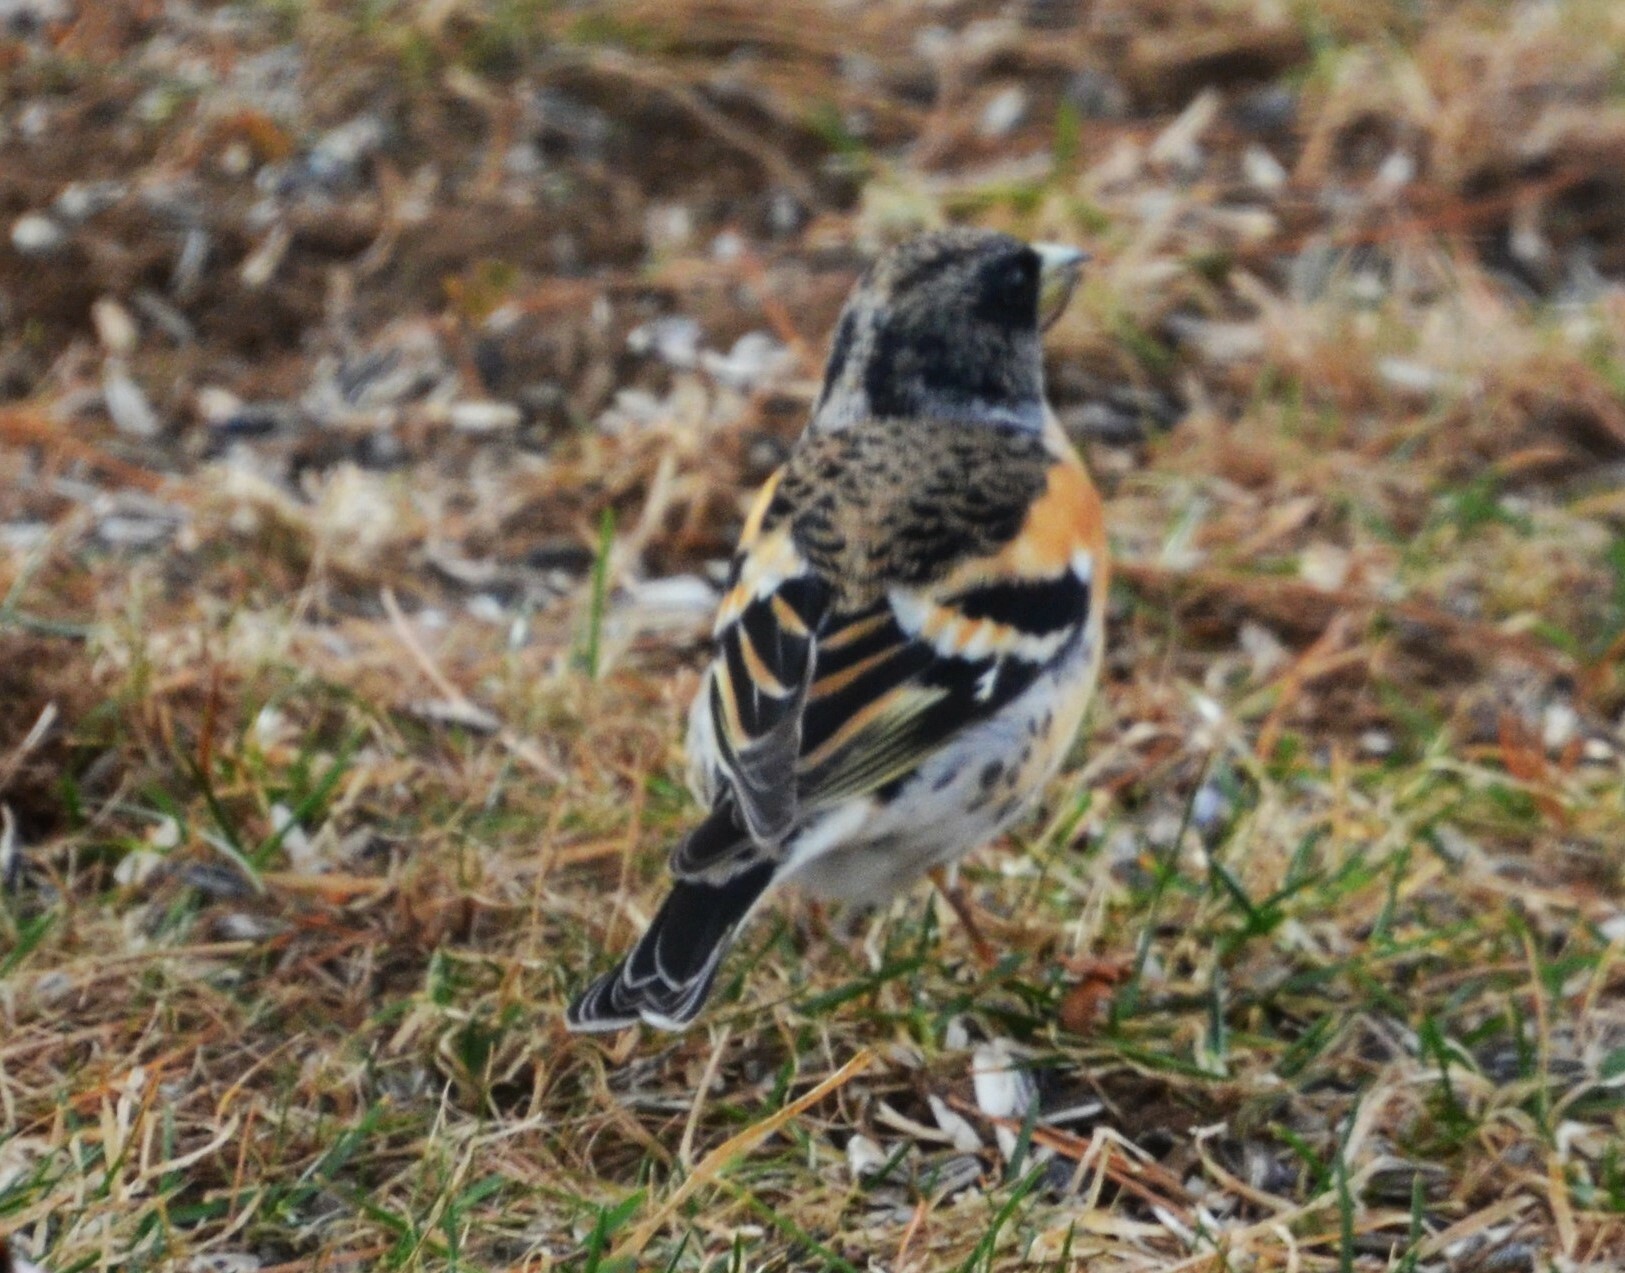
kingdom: Animalia
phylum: Chordata
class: Aves
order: Passeriformes
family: Fringillidae
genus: Fringilla
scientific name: Fringilla montifringilla
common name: Brambling
